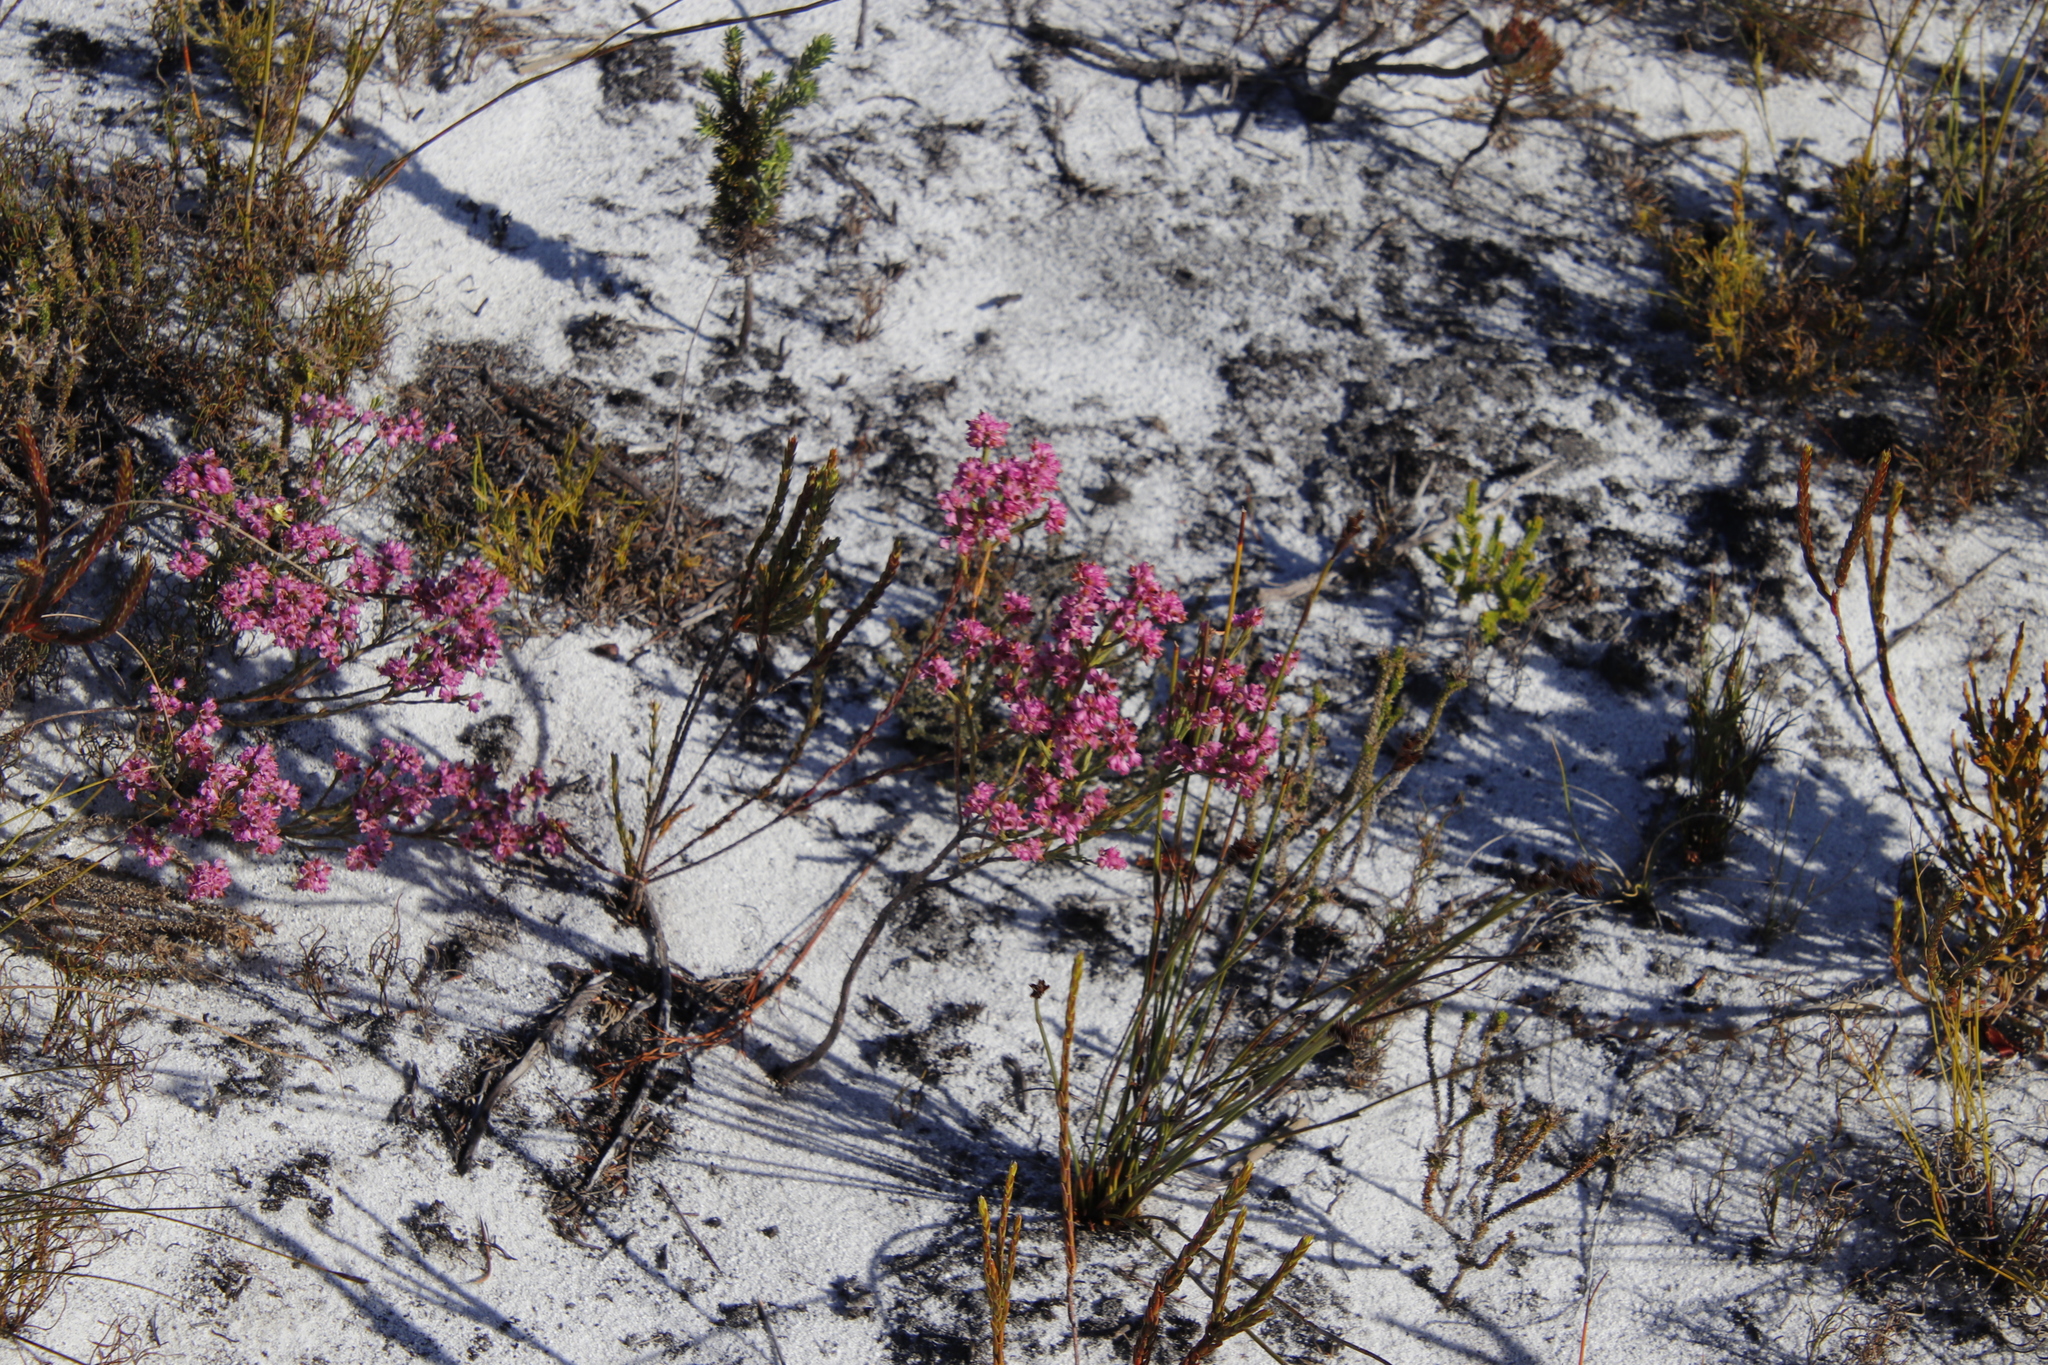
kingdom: Plantae
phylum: Tracheophyta
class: Magnoliopsida
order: Ericales
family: Ericaceae
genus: Erica
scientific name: Erica corifolia
